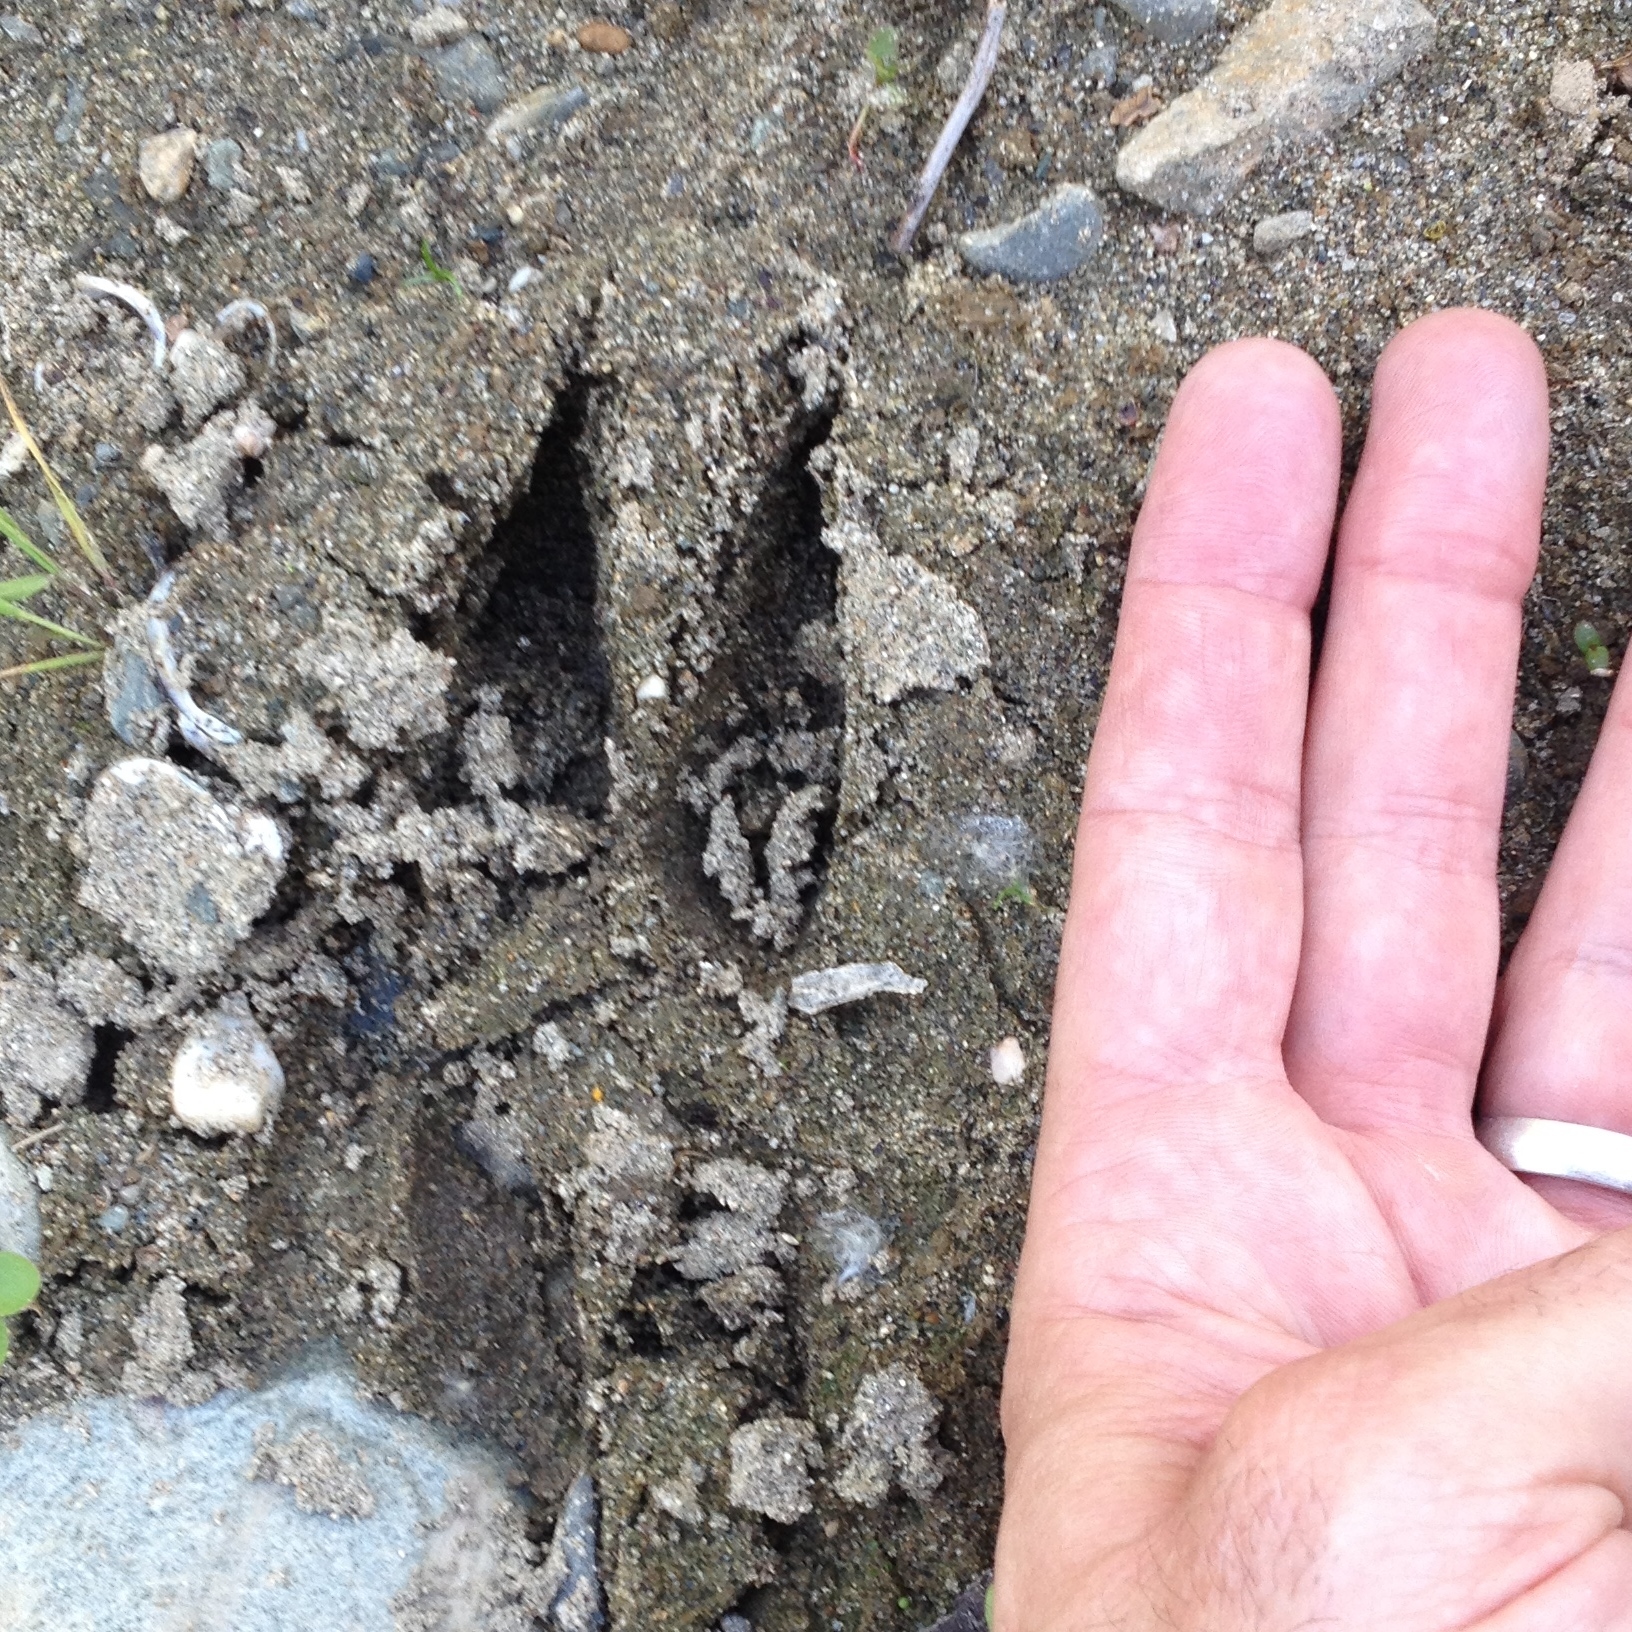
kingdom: Animalia
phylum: Chordata
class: Mammalia
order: Artiodactyla
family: Cervidae
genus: Odocoileus
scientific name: Odocoileus hemionus
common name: Mule deer
